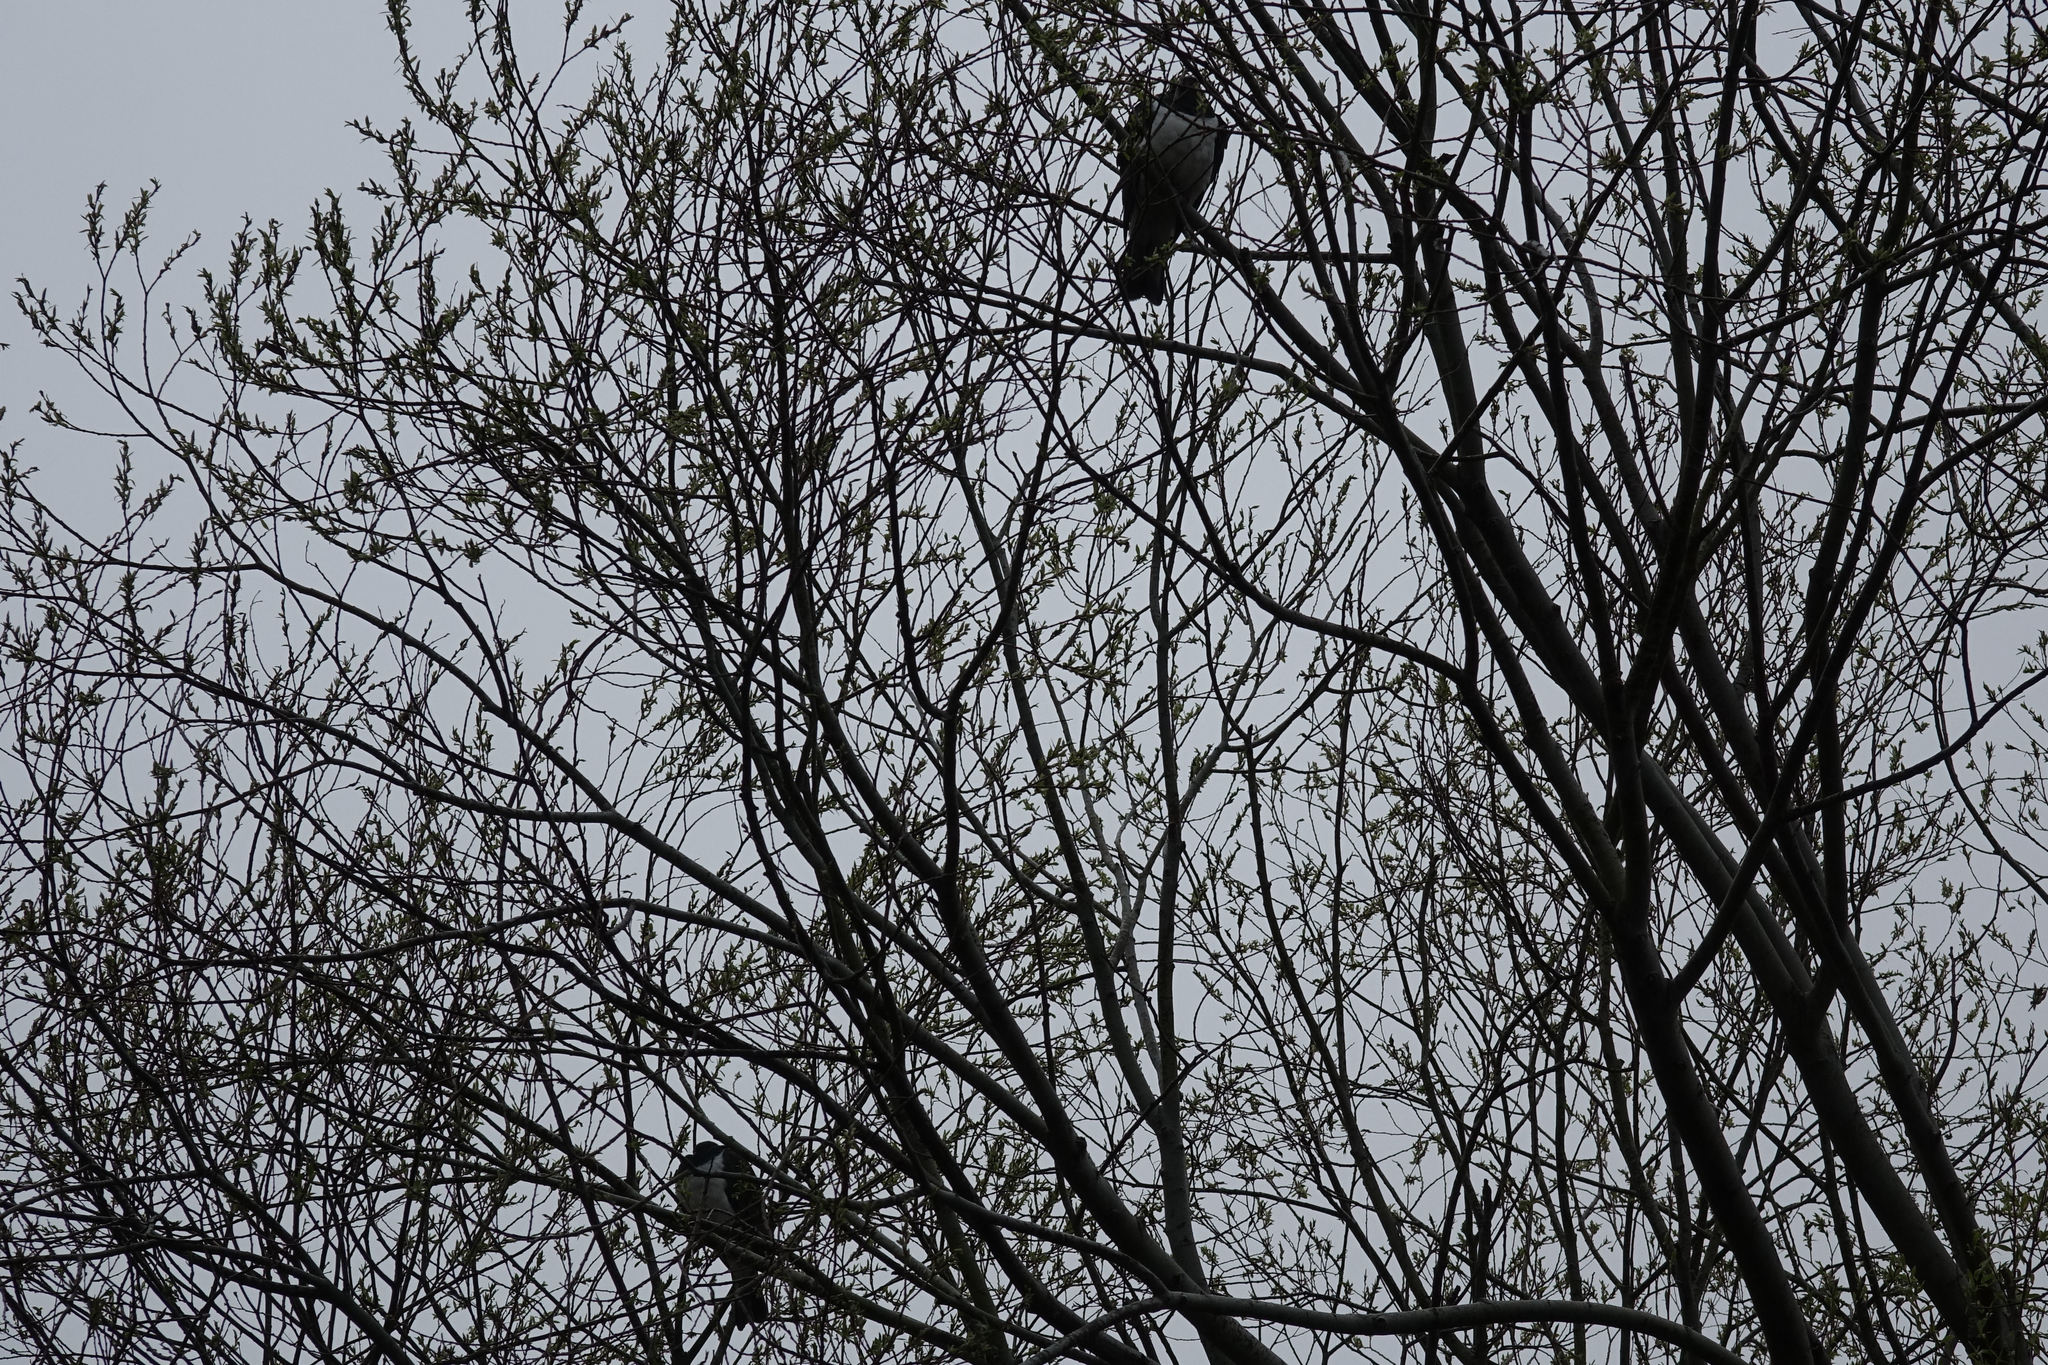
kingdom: Animalia
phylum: Chordata
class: Aves
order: Columbiformes
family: Columbidae
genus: Hemiphaga
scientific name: Hemiphaga novaeseelandiae
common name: New zealand pigeon
